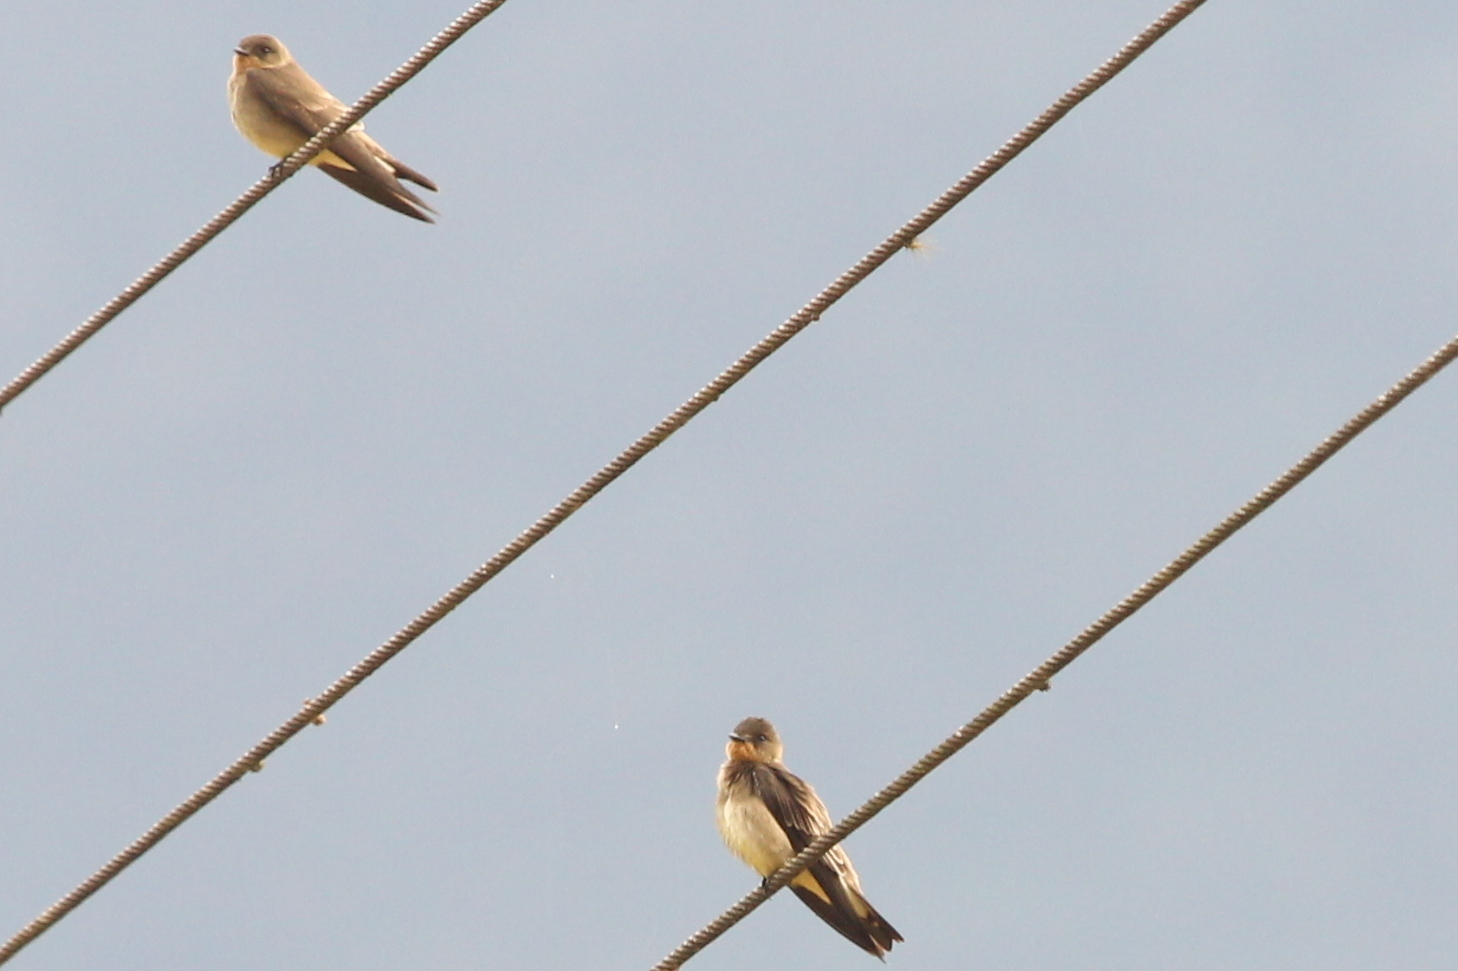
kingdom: Animalia
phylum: Chordata
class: Aves
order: Passeriformes
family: Hirundinidae
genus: Stelgidopteryx
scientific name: Stelgidopteryx ruficollis
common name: Southern rough-winged swallow
